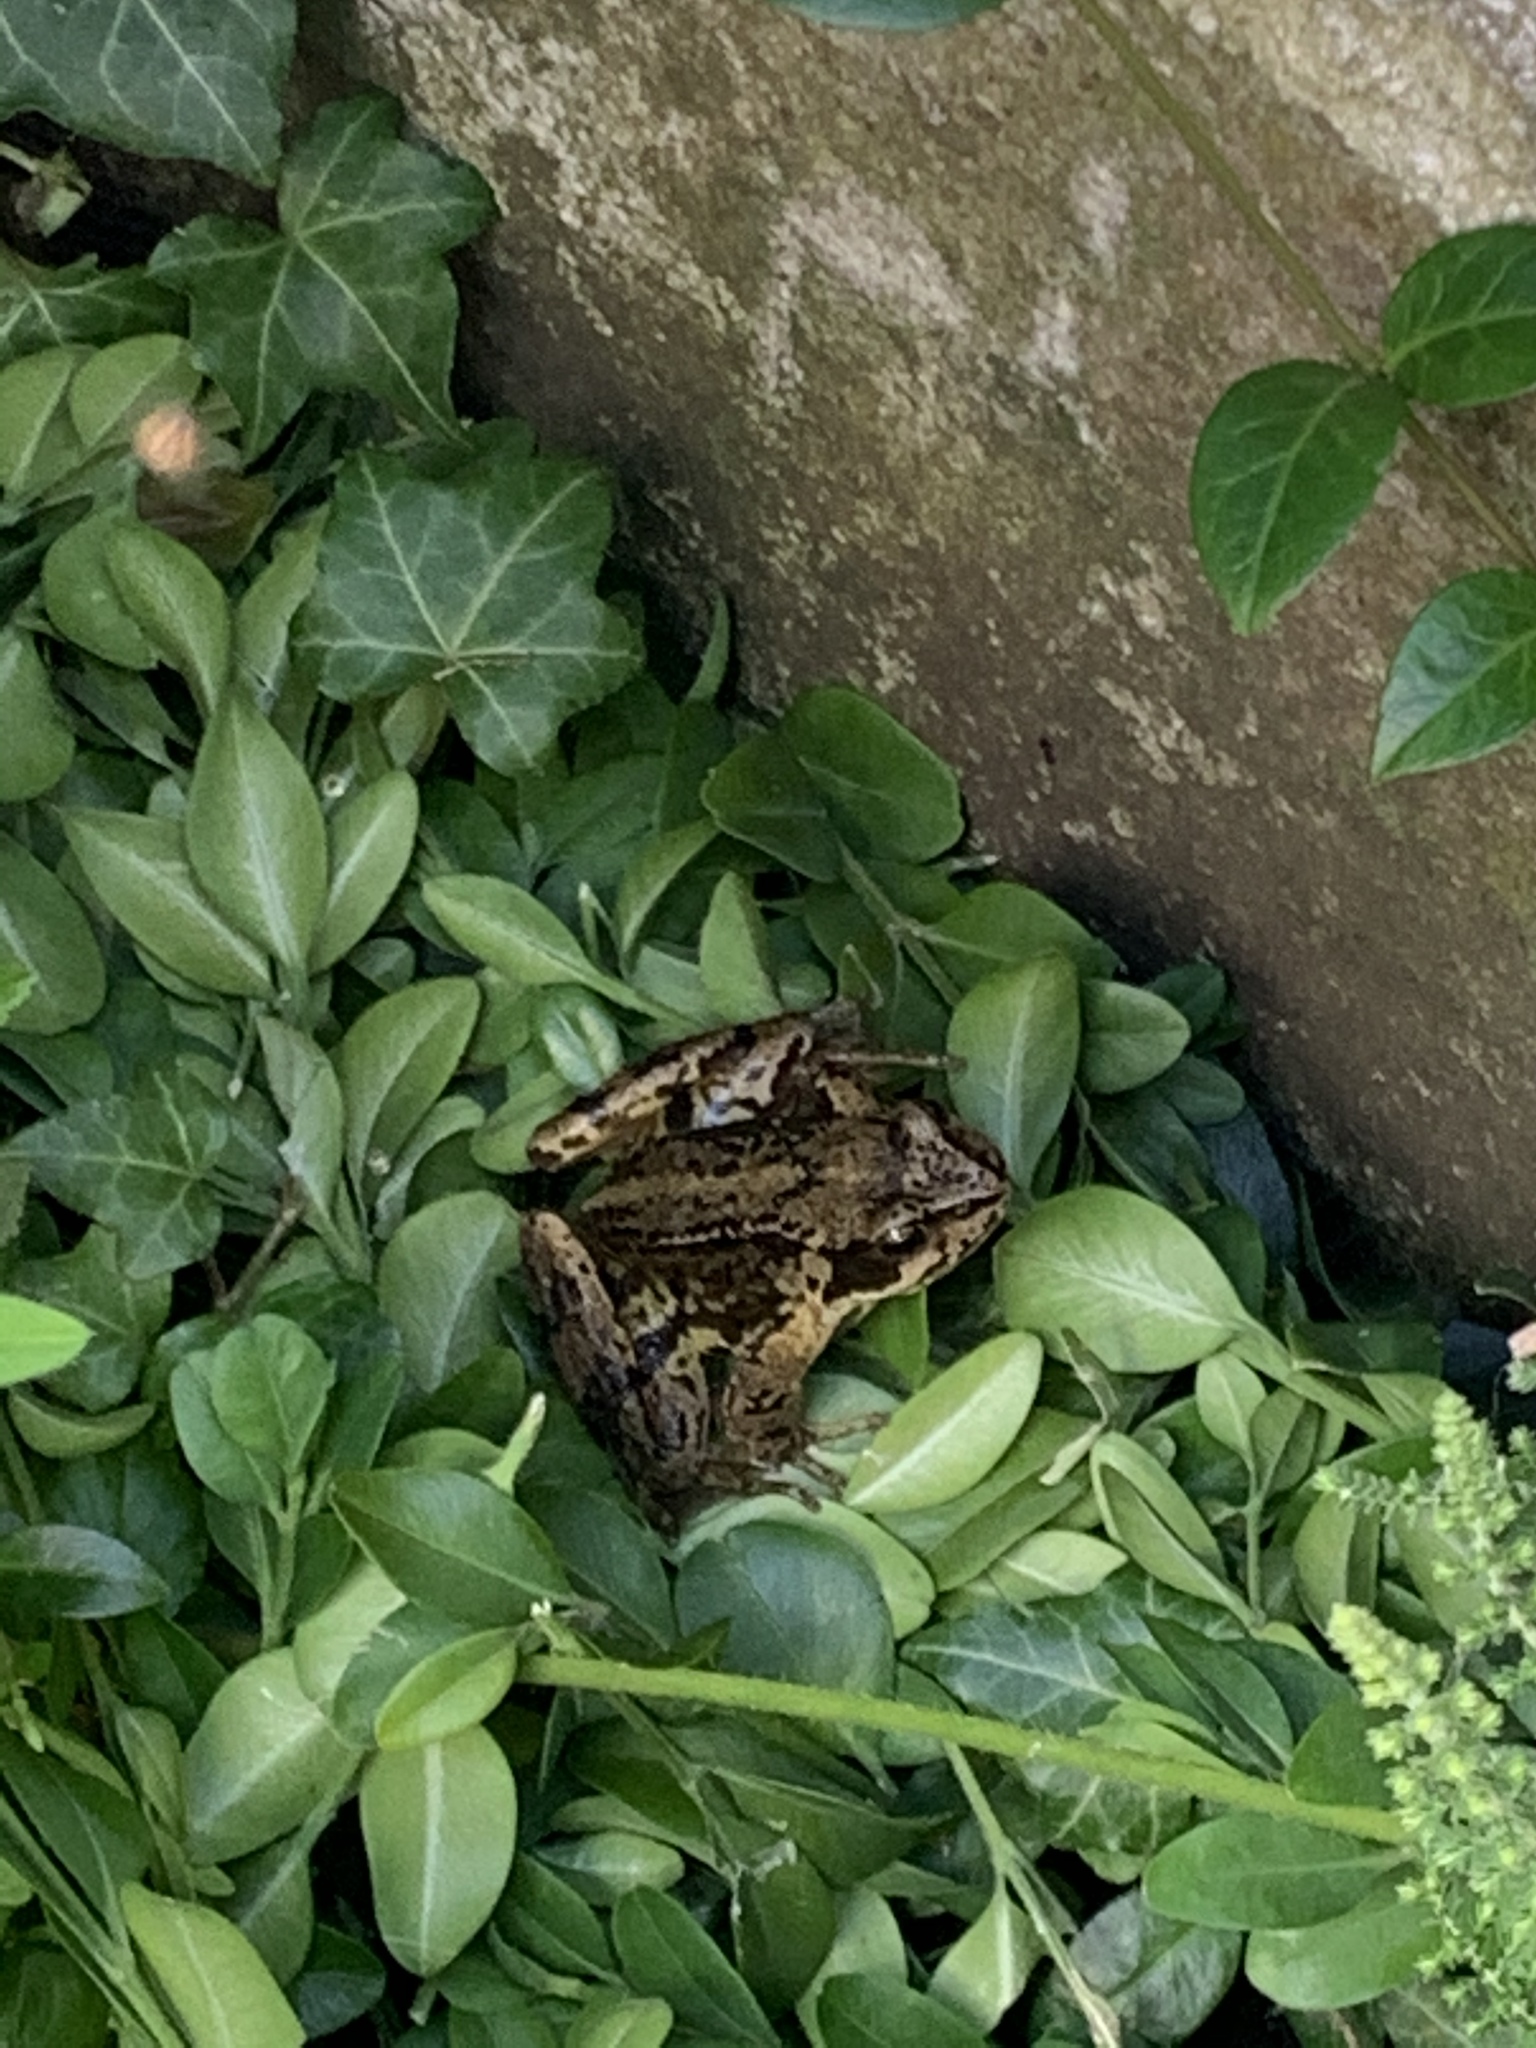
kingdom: Animalia
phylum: Chordata
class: Amphibia
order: Anura
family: Ranidae
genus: Rana
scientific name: Rana temporaria
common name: Common frog
